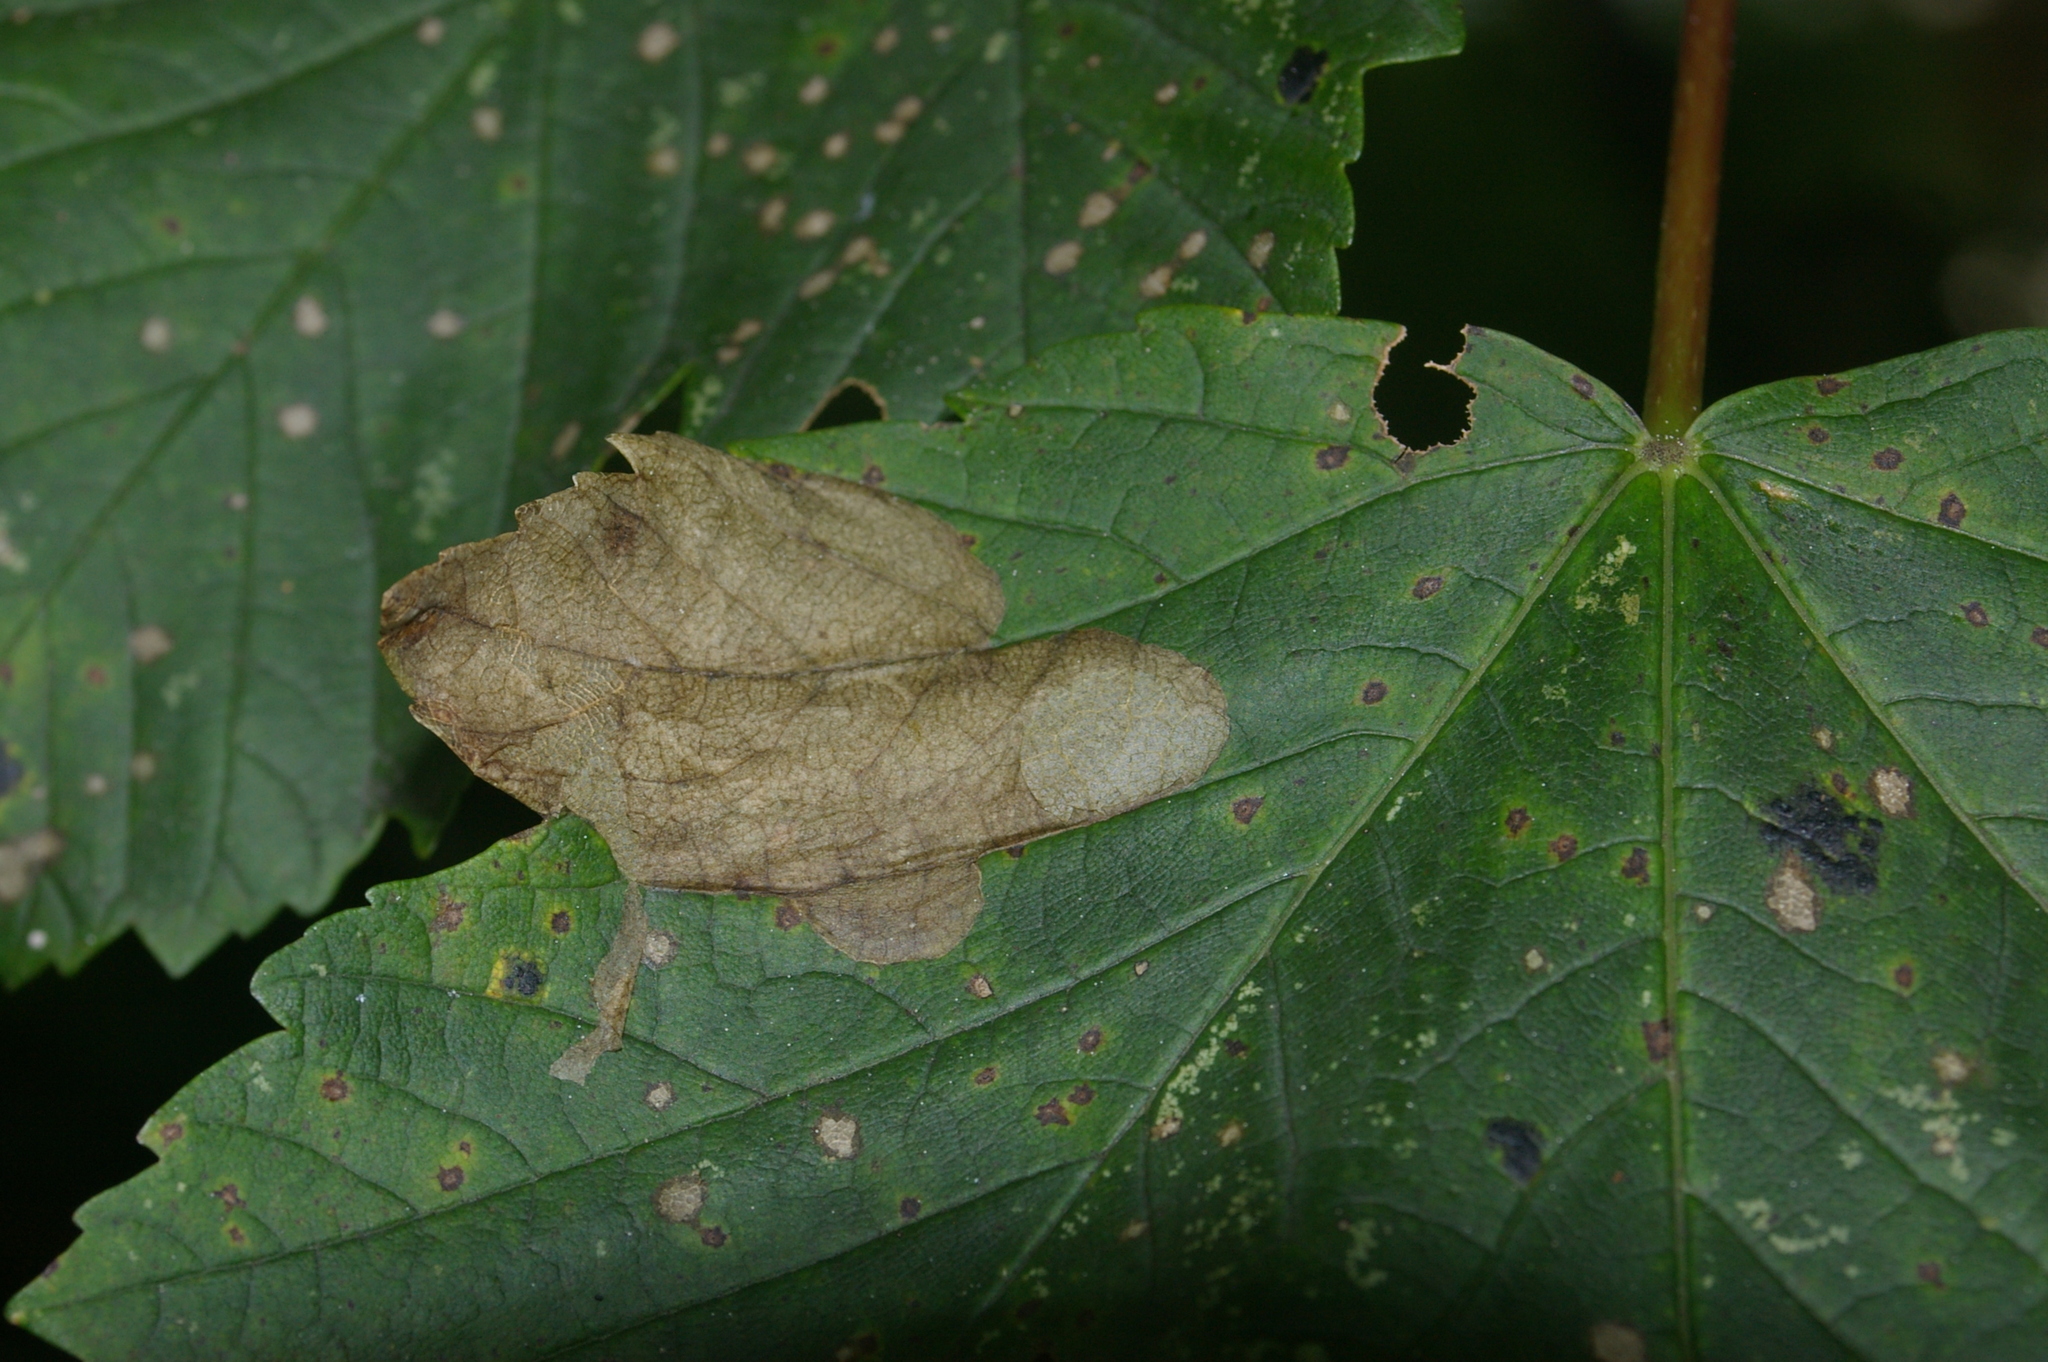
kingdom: Animalia
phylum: Arthropoda
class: Insecta
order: Hymenoptera
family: Tenthredinidae
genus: Heterarthrus
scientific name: Heterarthrus fiora
